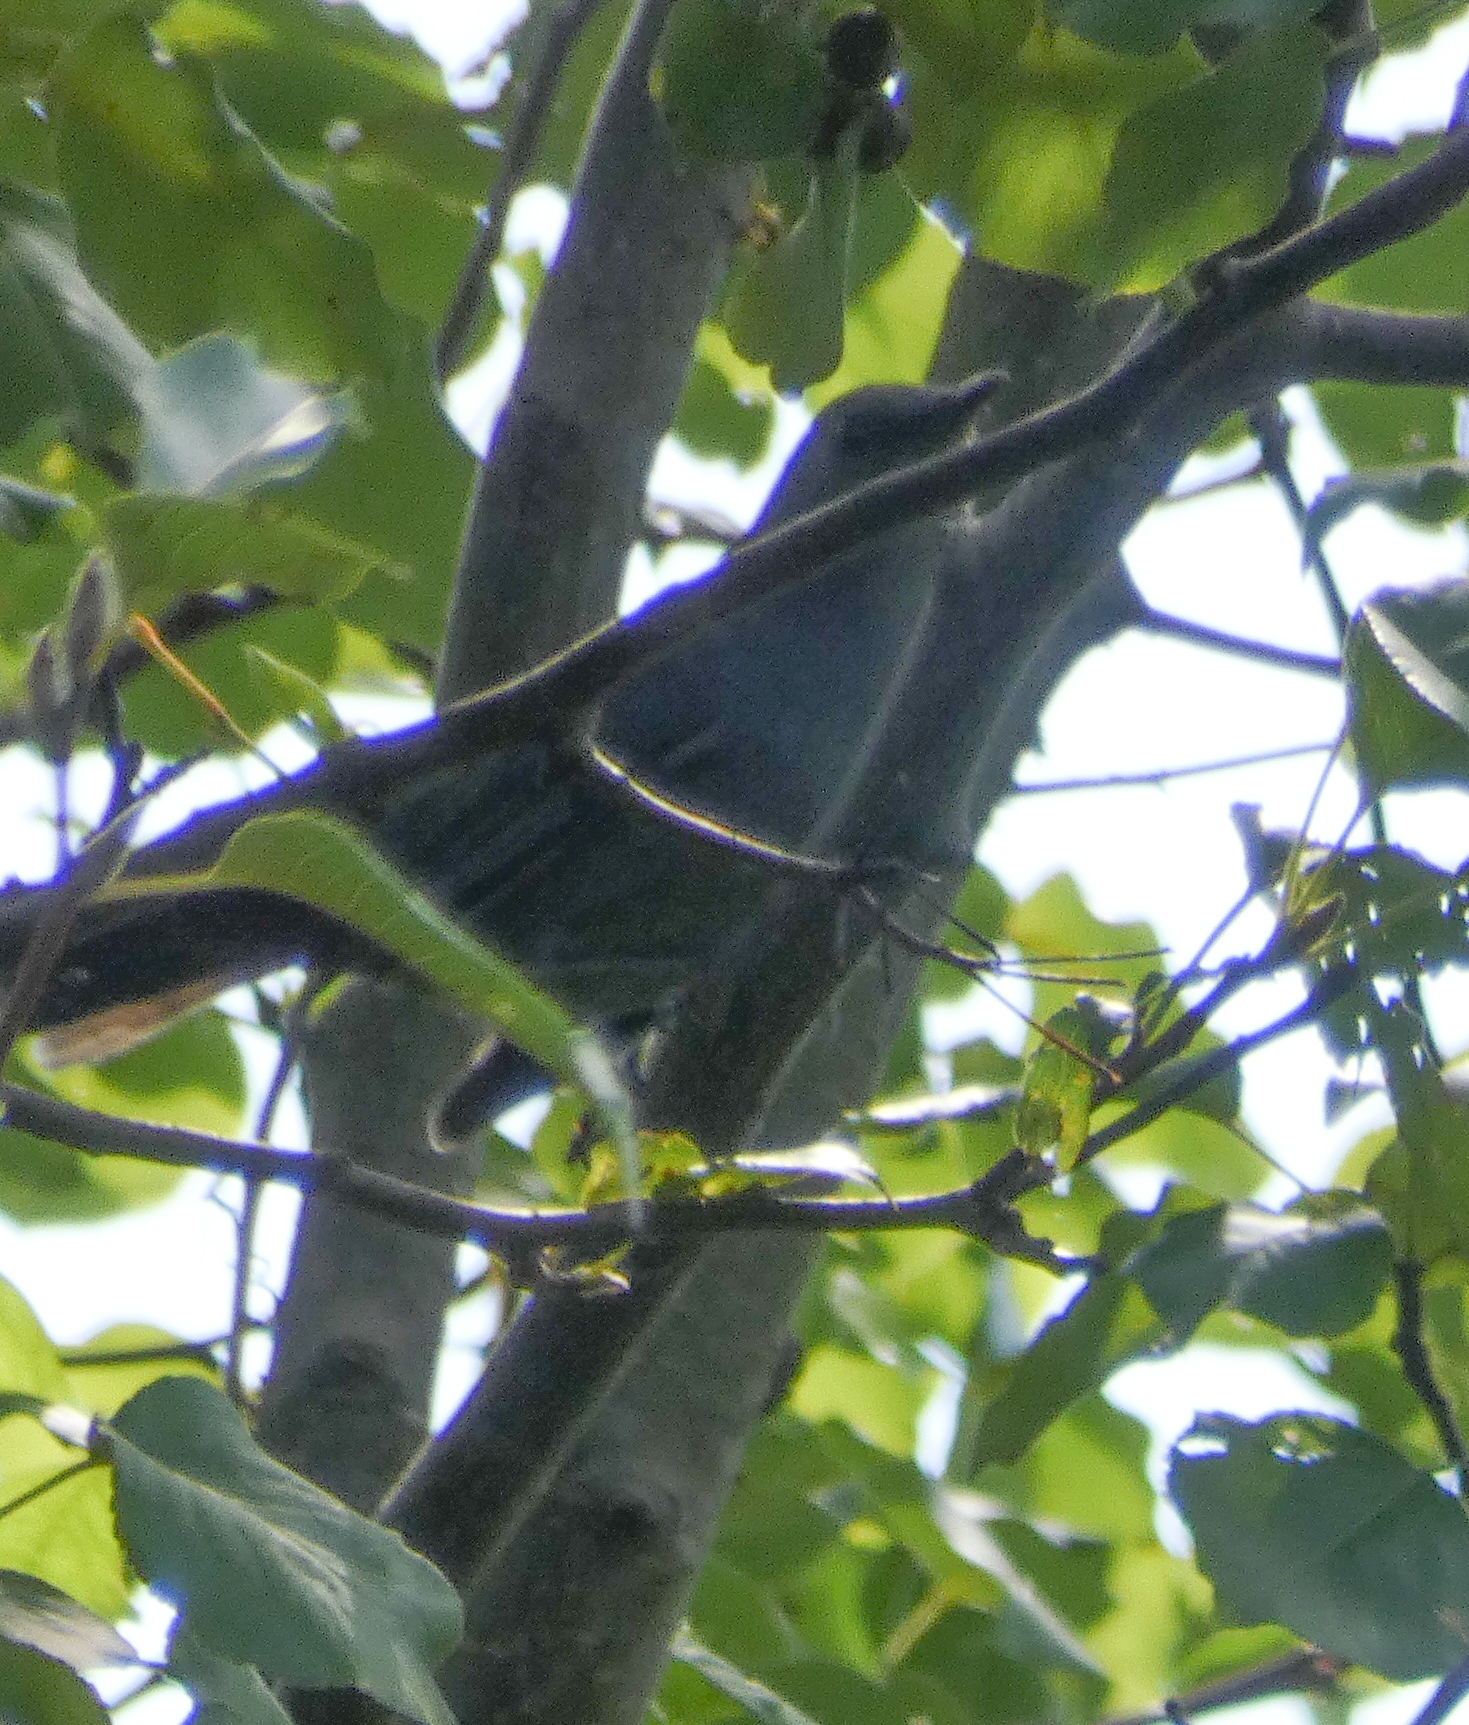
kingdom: Animalia
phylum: Chordata
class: Aves
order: Passeriformes
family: Mimidae
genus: Dumetella
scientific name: Dumetella carolinensis
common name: Gray catbird
